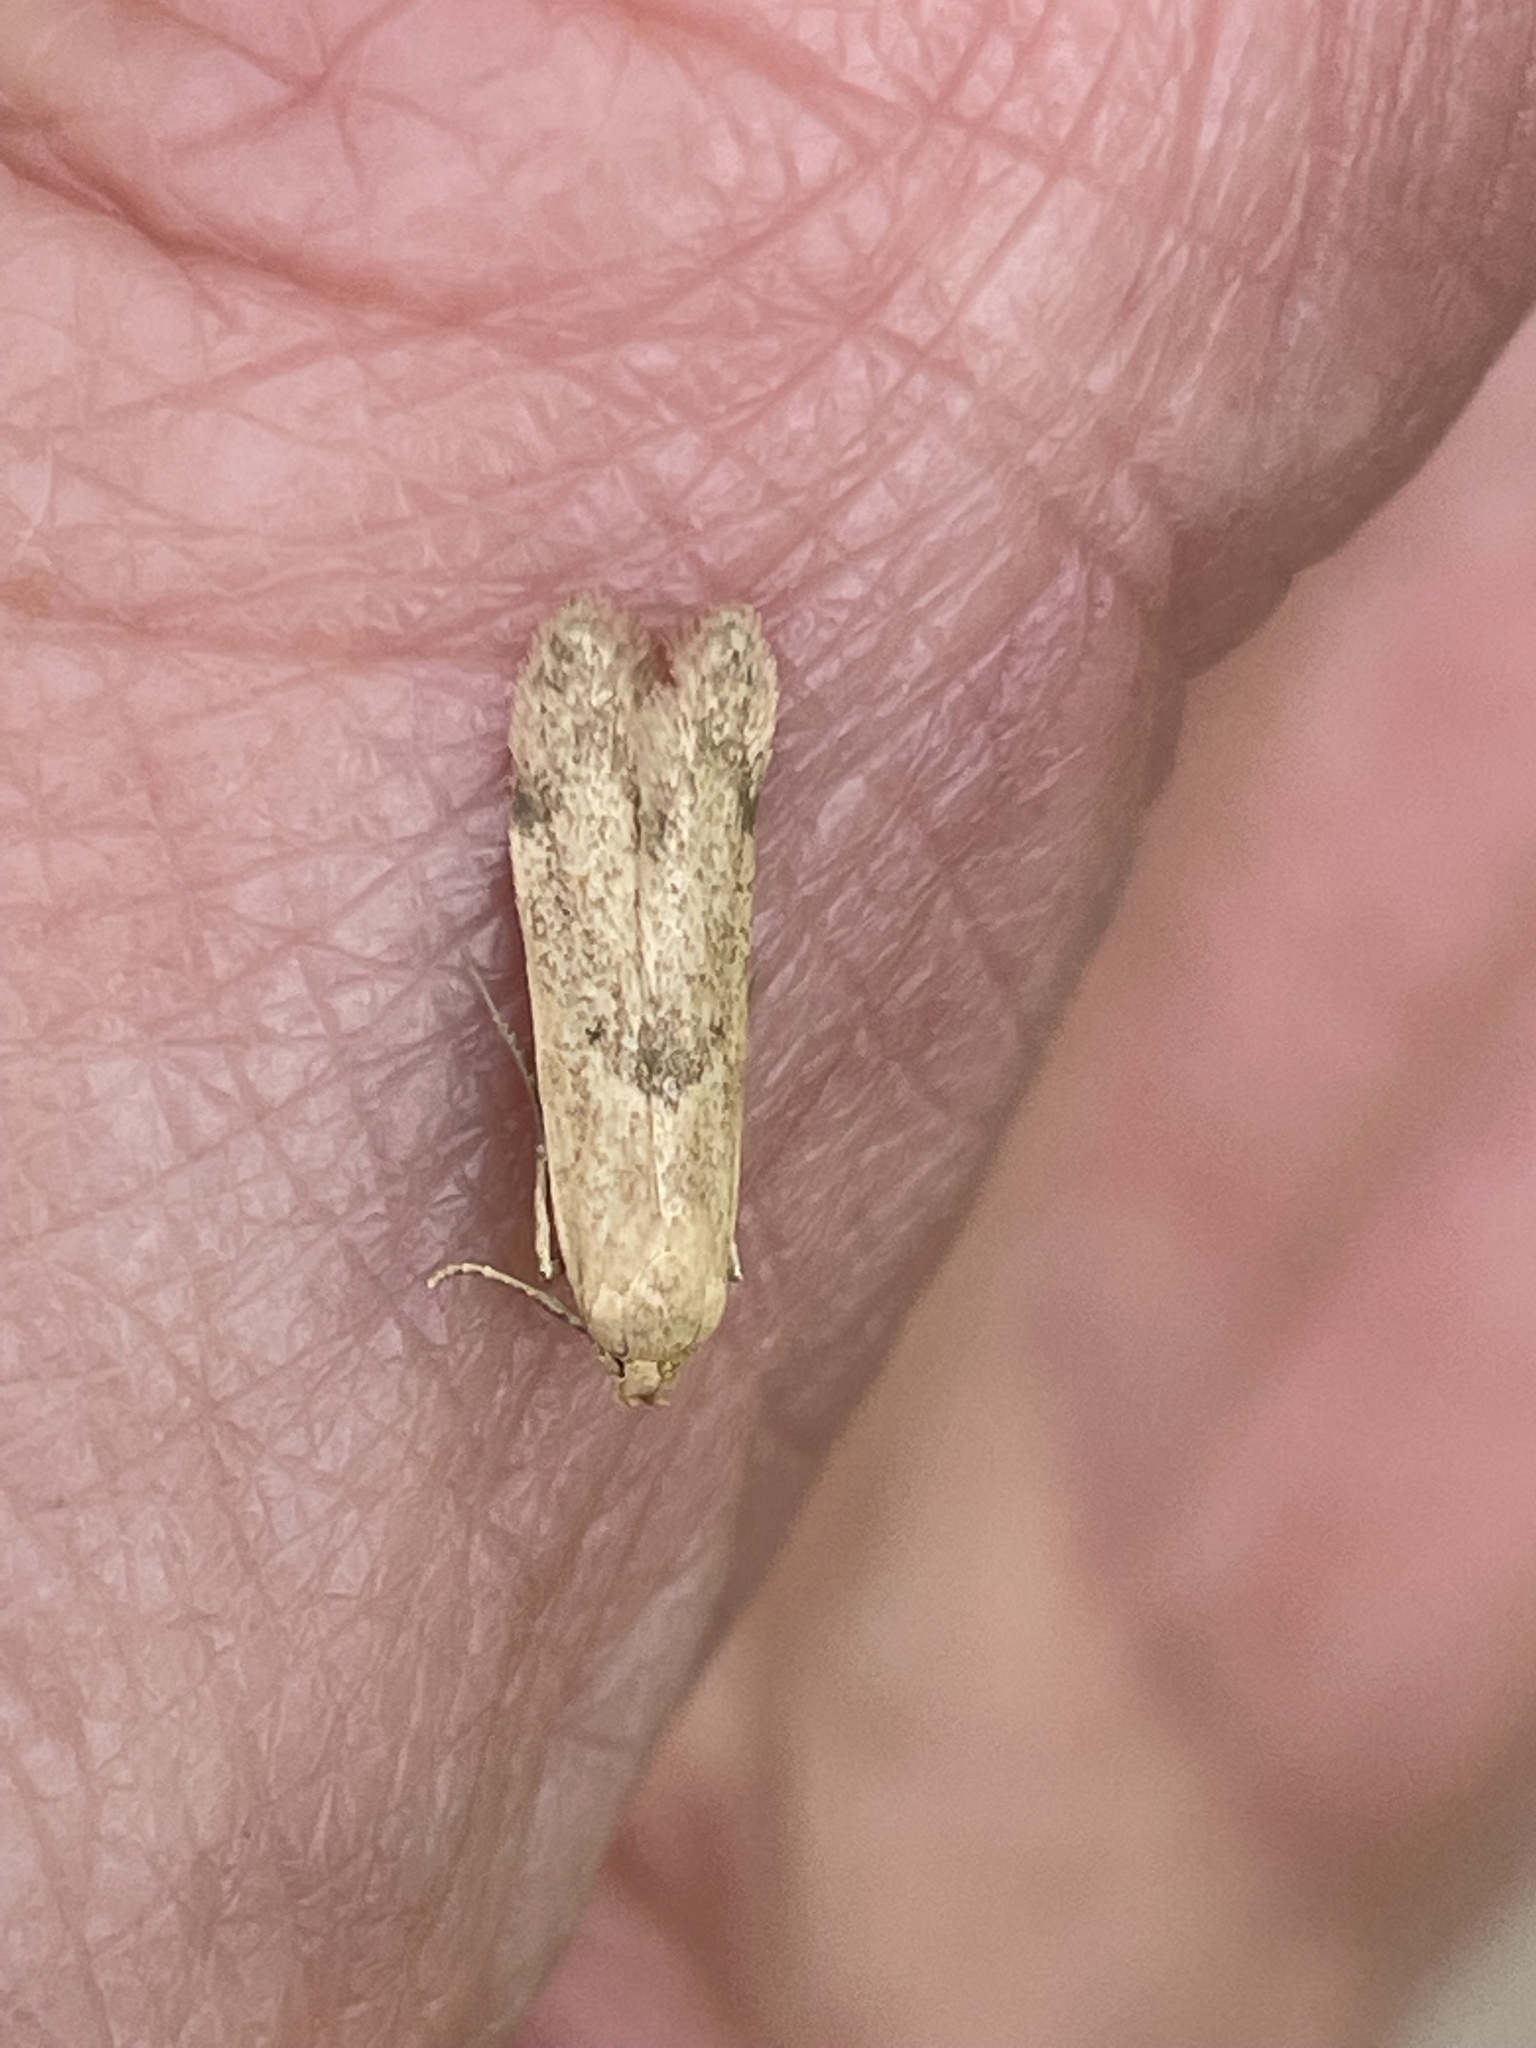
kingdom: Animalia
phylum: Arthropoda
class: Insecta
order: Lepidoptera
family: Blastobasidae
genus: Blastobasis
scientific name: Blastobasis lacticolella
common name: London dowd
